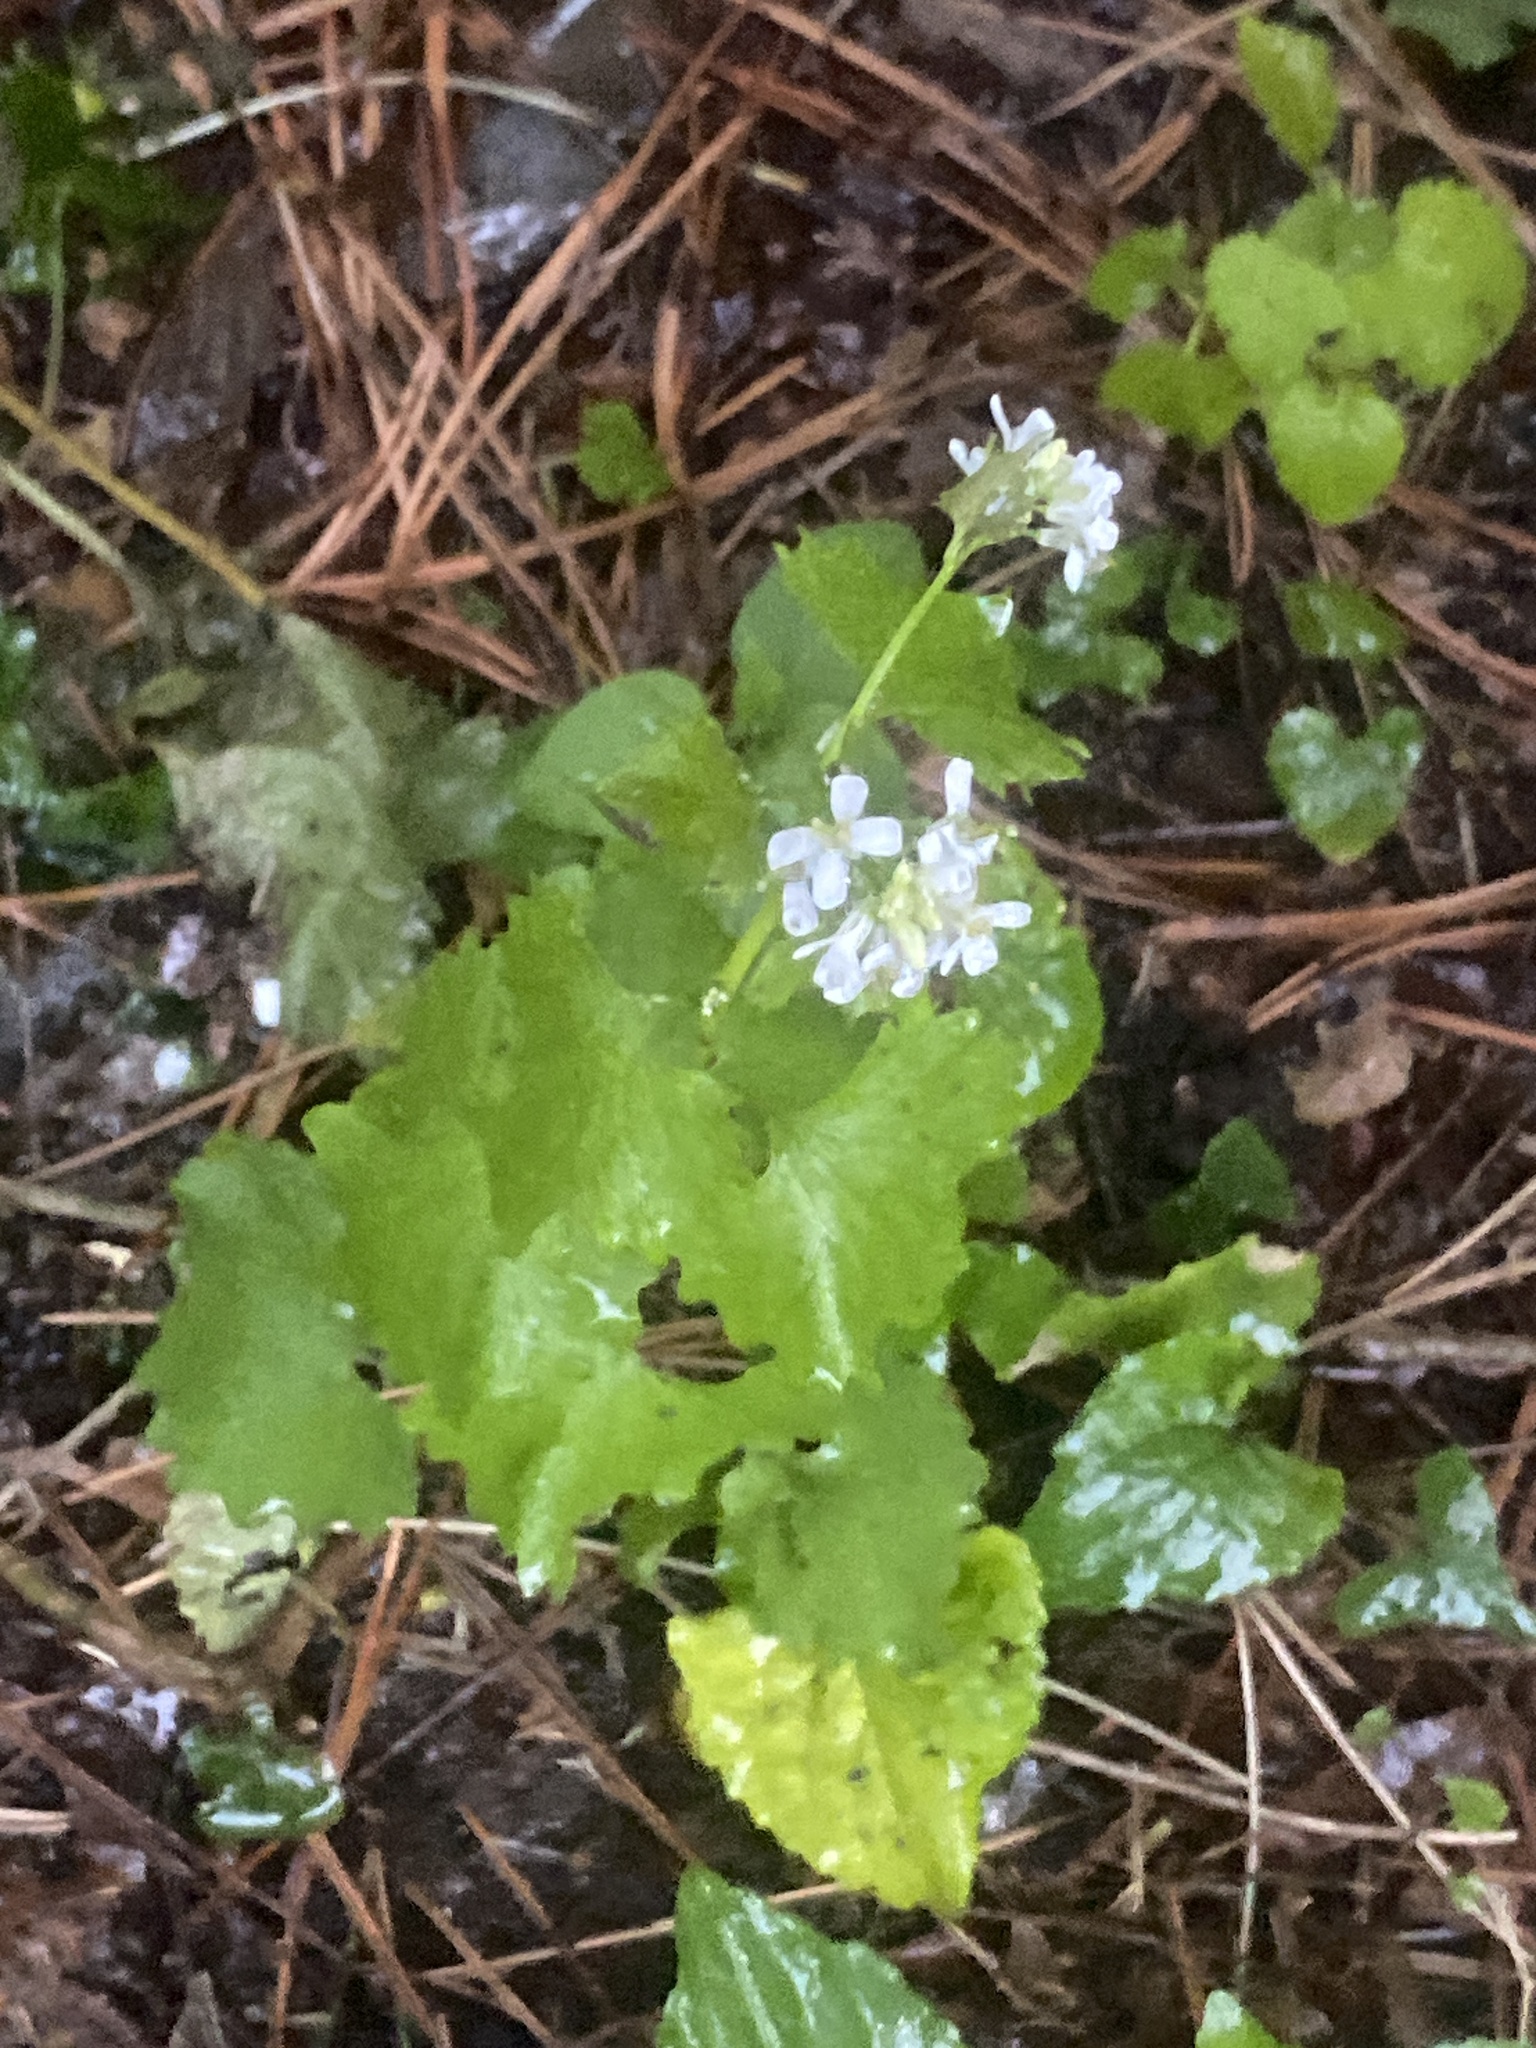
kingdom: Plantae
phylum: Tracheophyta
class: Magnoliopsida
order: Brassicales
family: Brassicaceae
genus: Alliaria
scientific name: Alliaria petiolata
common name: Garlic mustard
